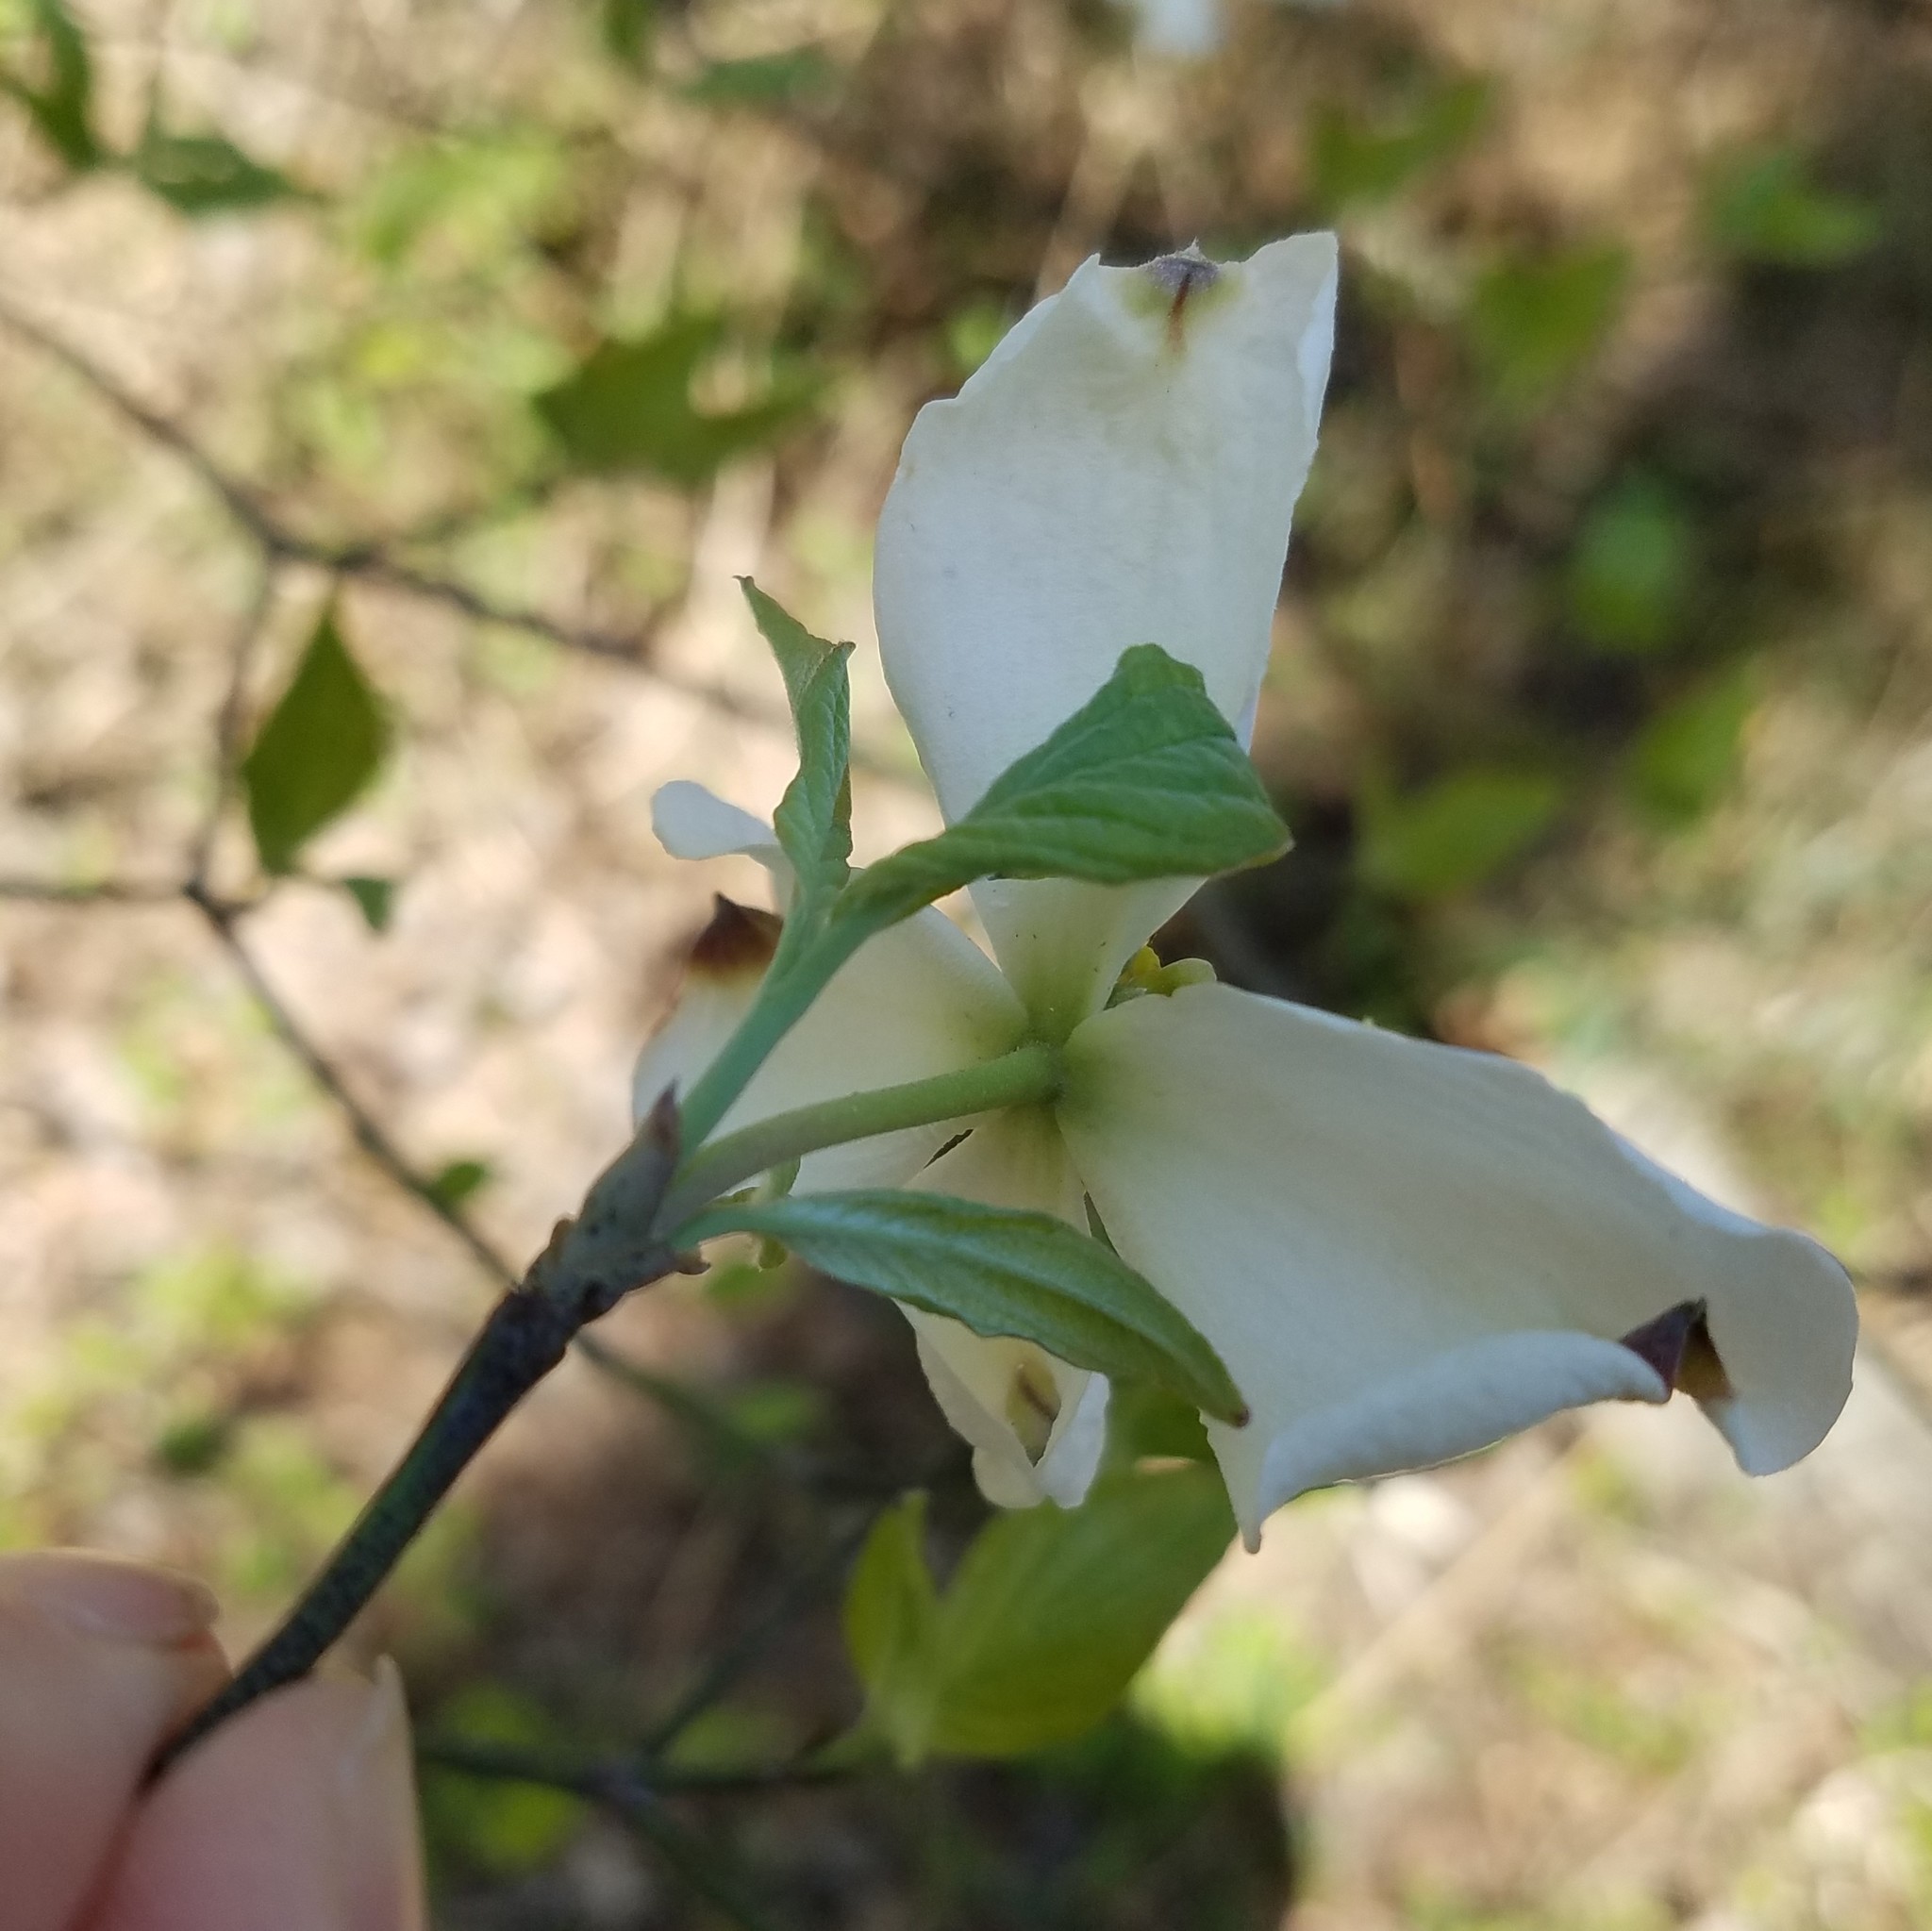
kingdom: Plantae
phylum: Tracheophyta
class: Magnoliopsida
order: Cornales
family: Cornaceae
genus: Cornus
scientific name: Cornus florida
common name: Flowering dogwood
